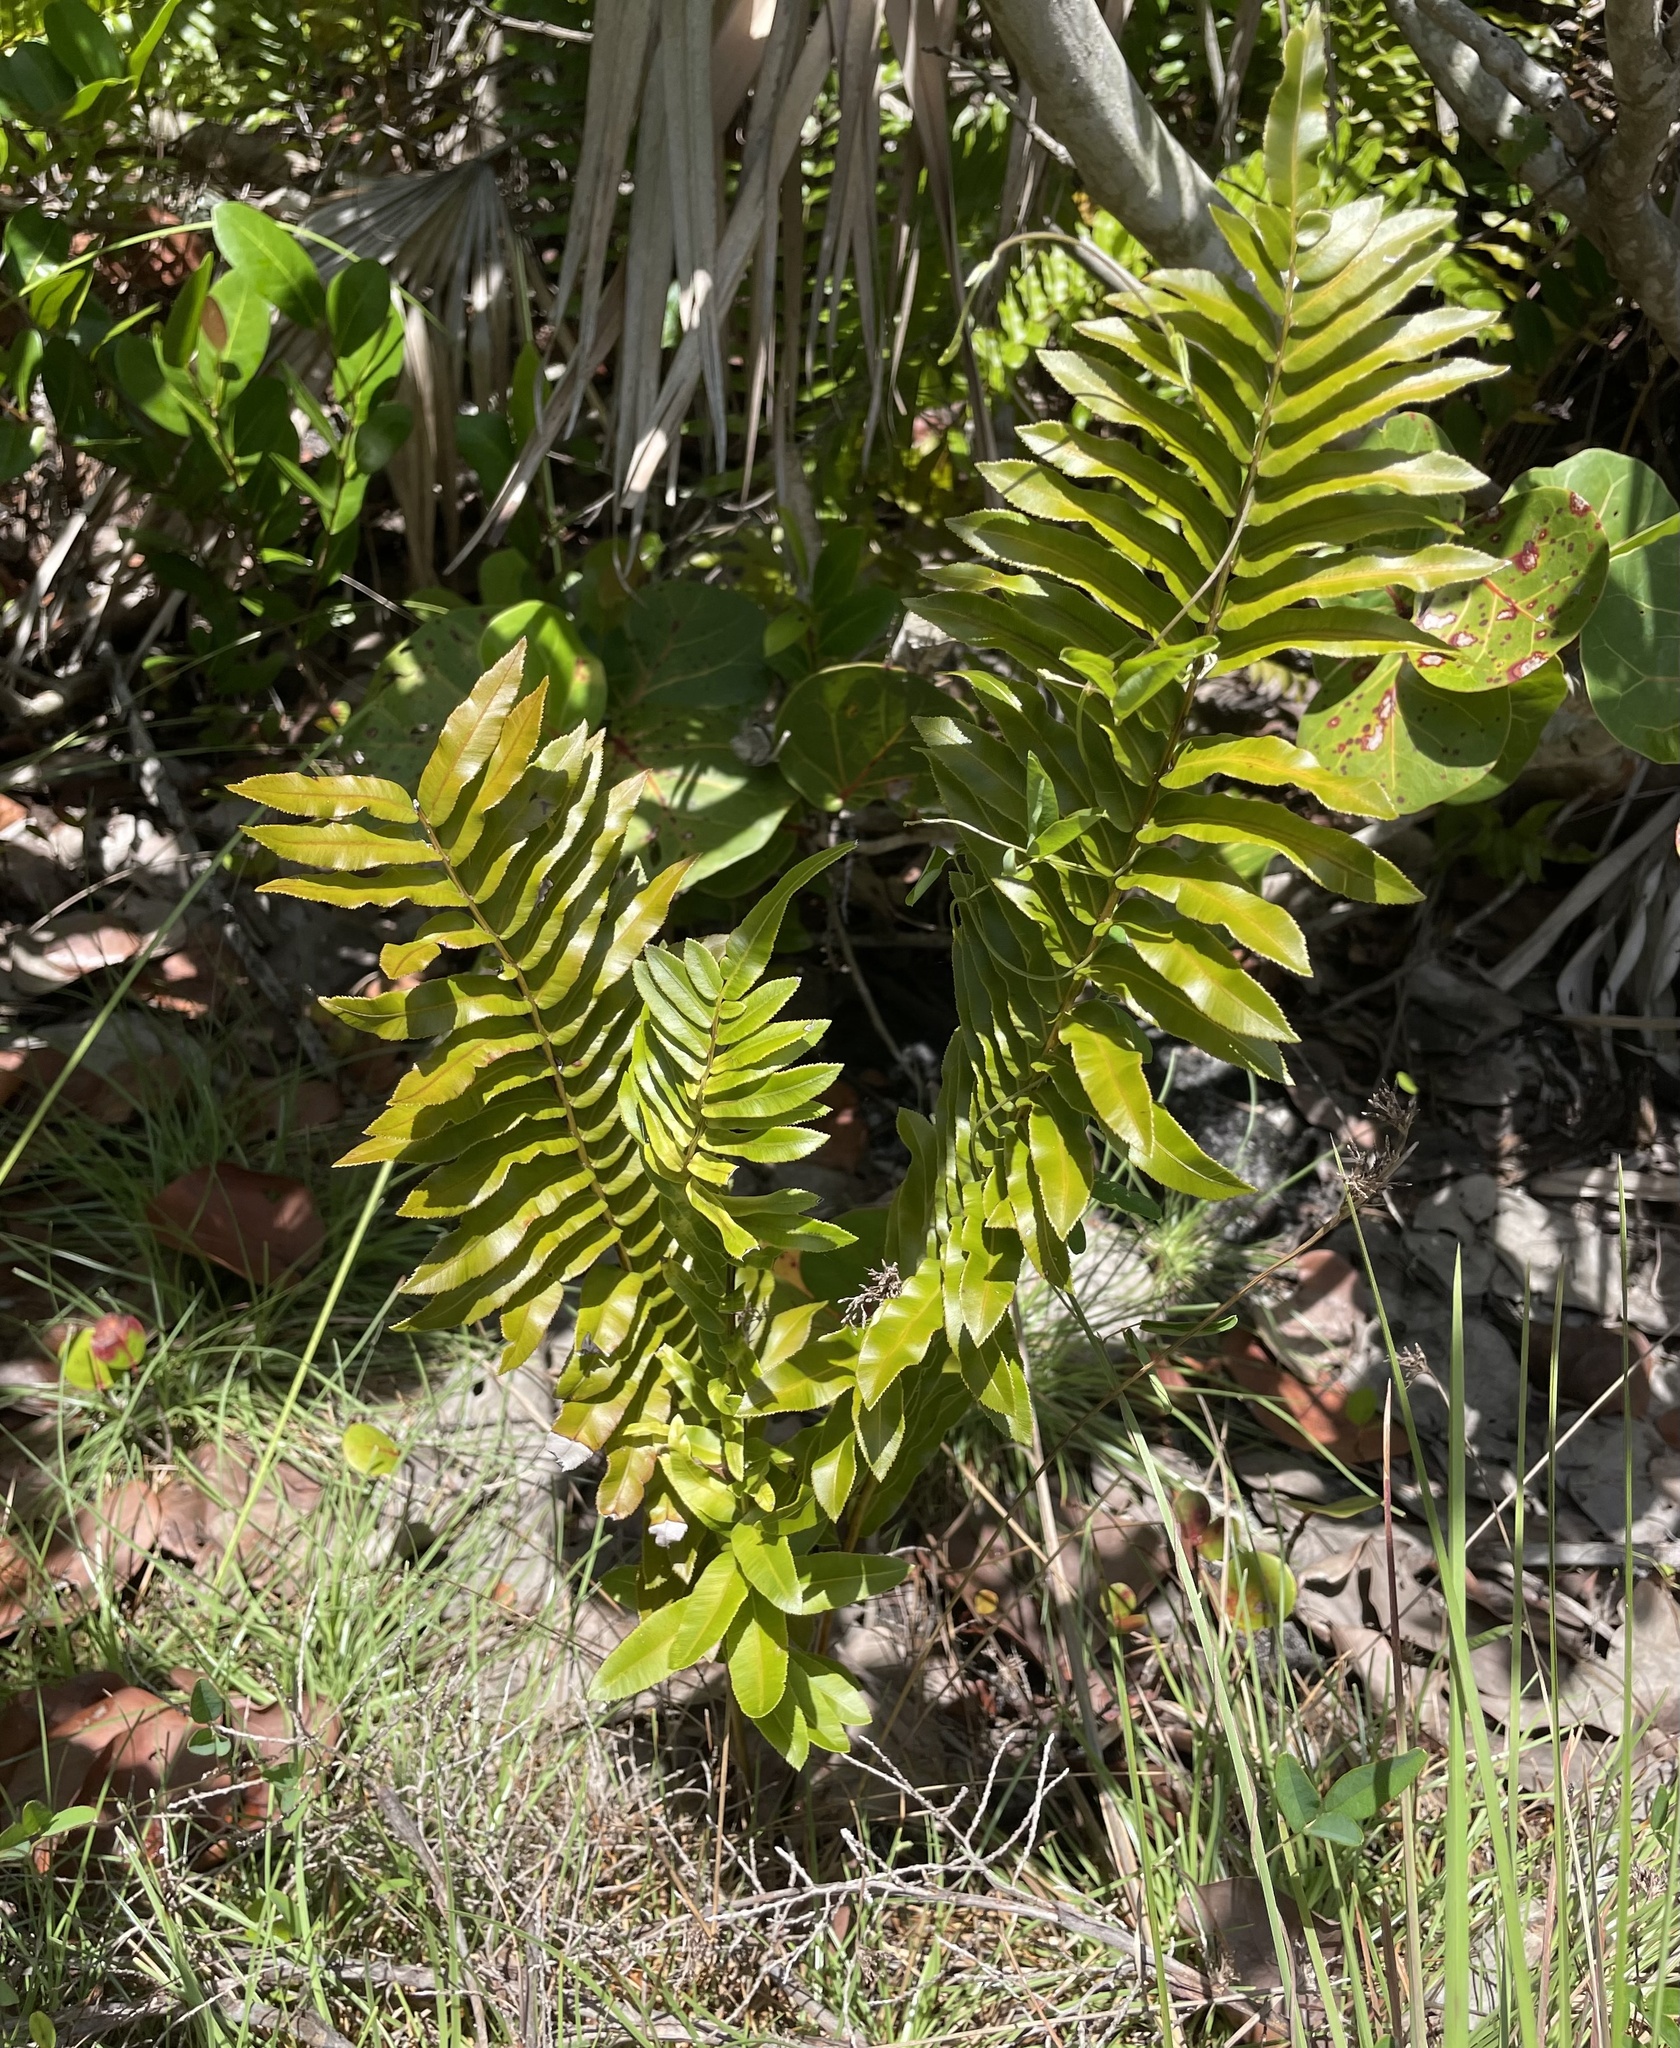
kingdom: Plantae
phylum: Tracheophyta
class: Polypodiopsida
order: Polypodiales
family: Blechnaceae
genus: Telmatoblechnum
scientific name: Telmatoblechnum serrulatum
